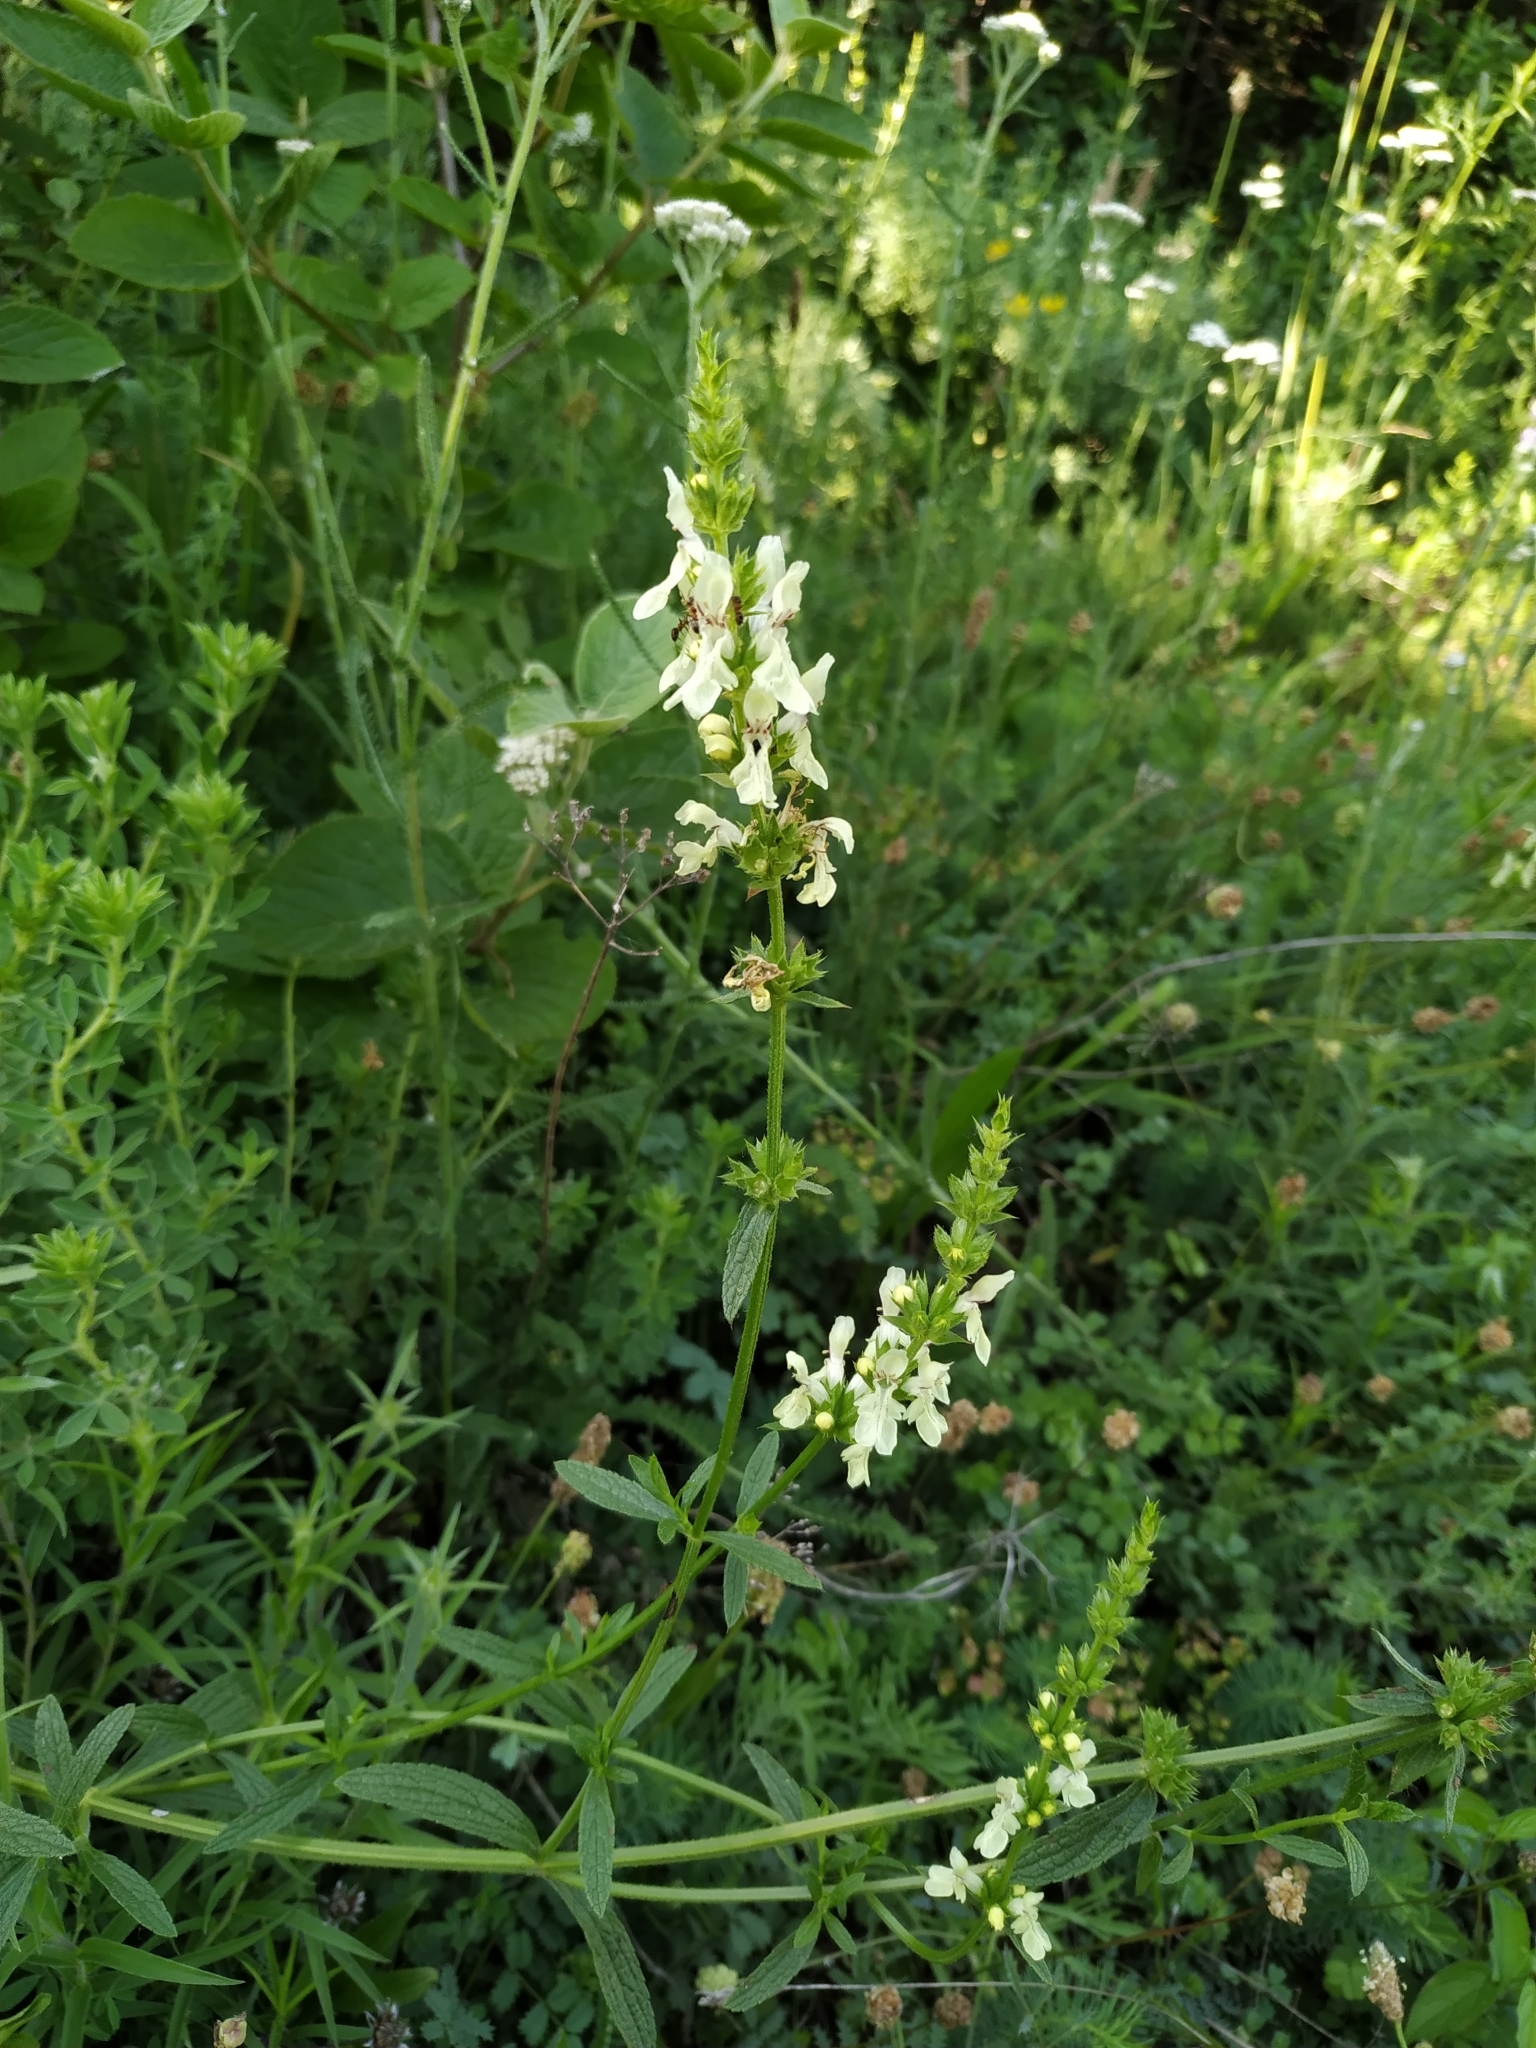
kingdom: Plantae
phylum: Tracheophyta
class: Magnoliopsida
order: Lamiales
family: Lamiaceae
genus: Stachys
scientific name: Stachys recta
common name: Perennial yellow-woundwort
